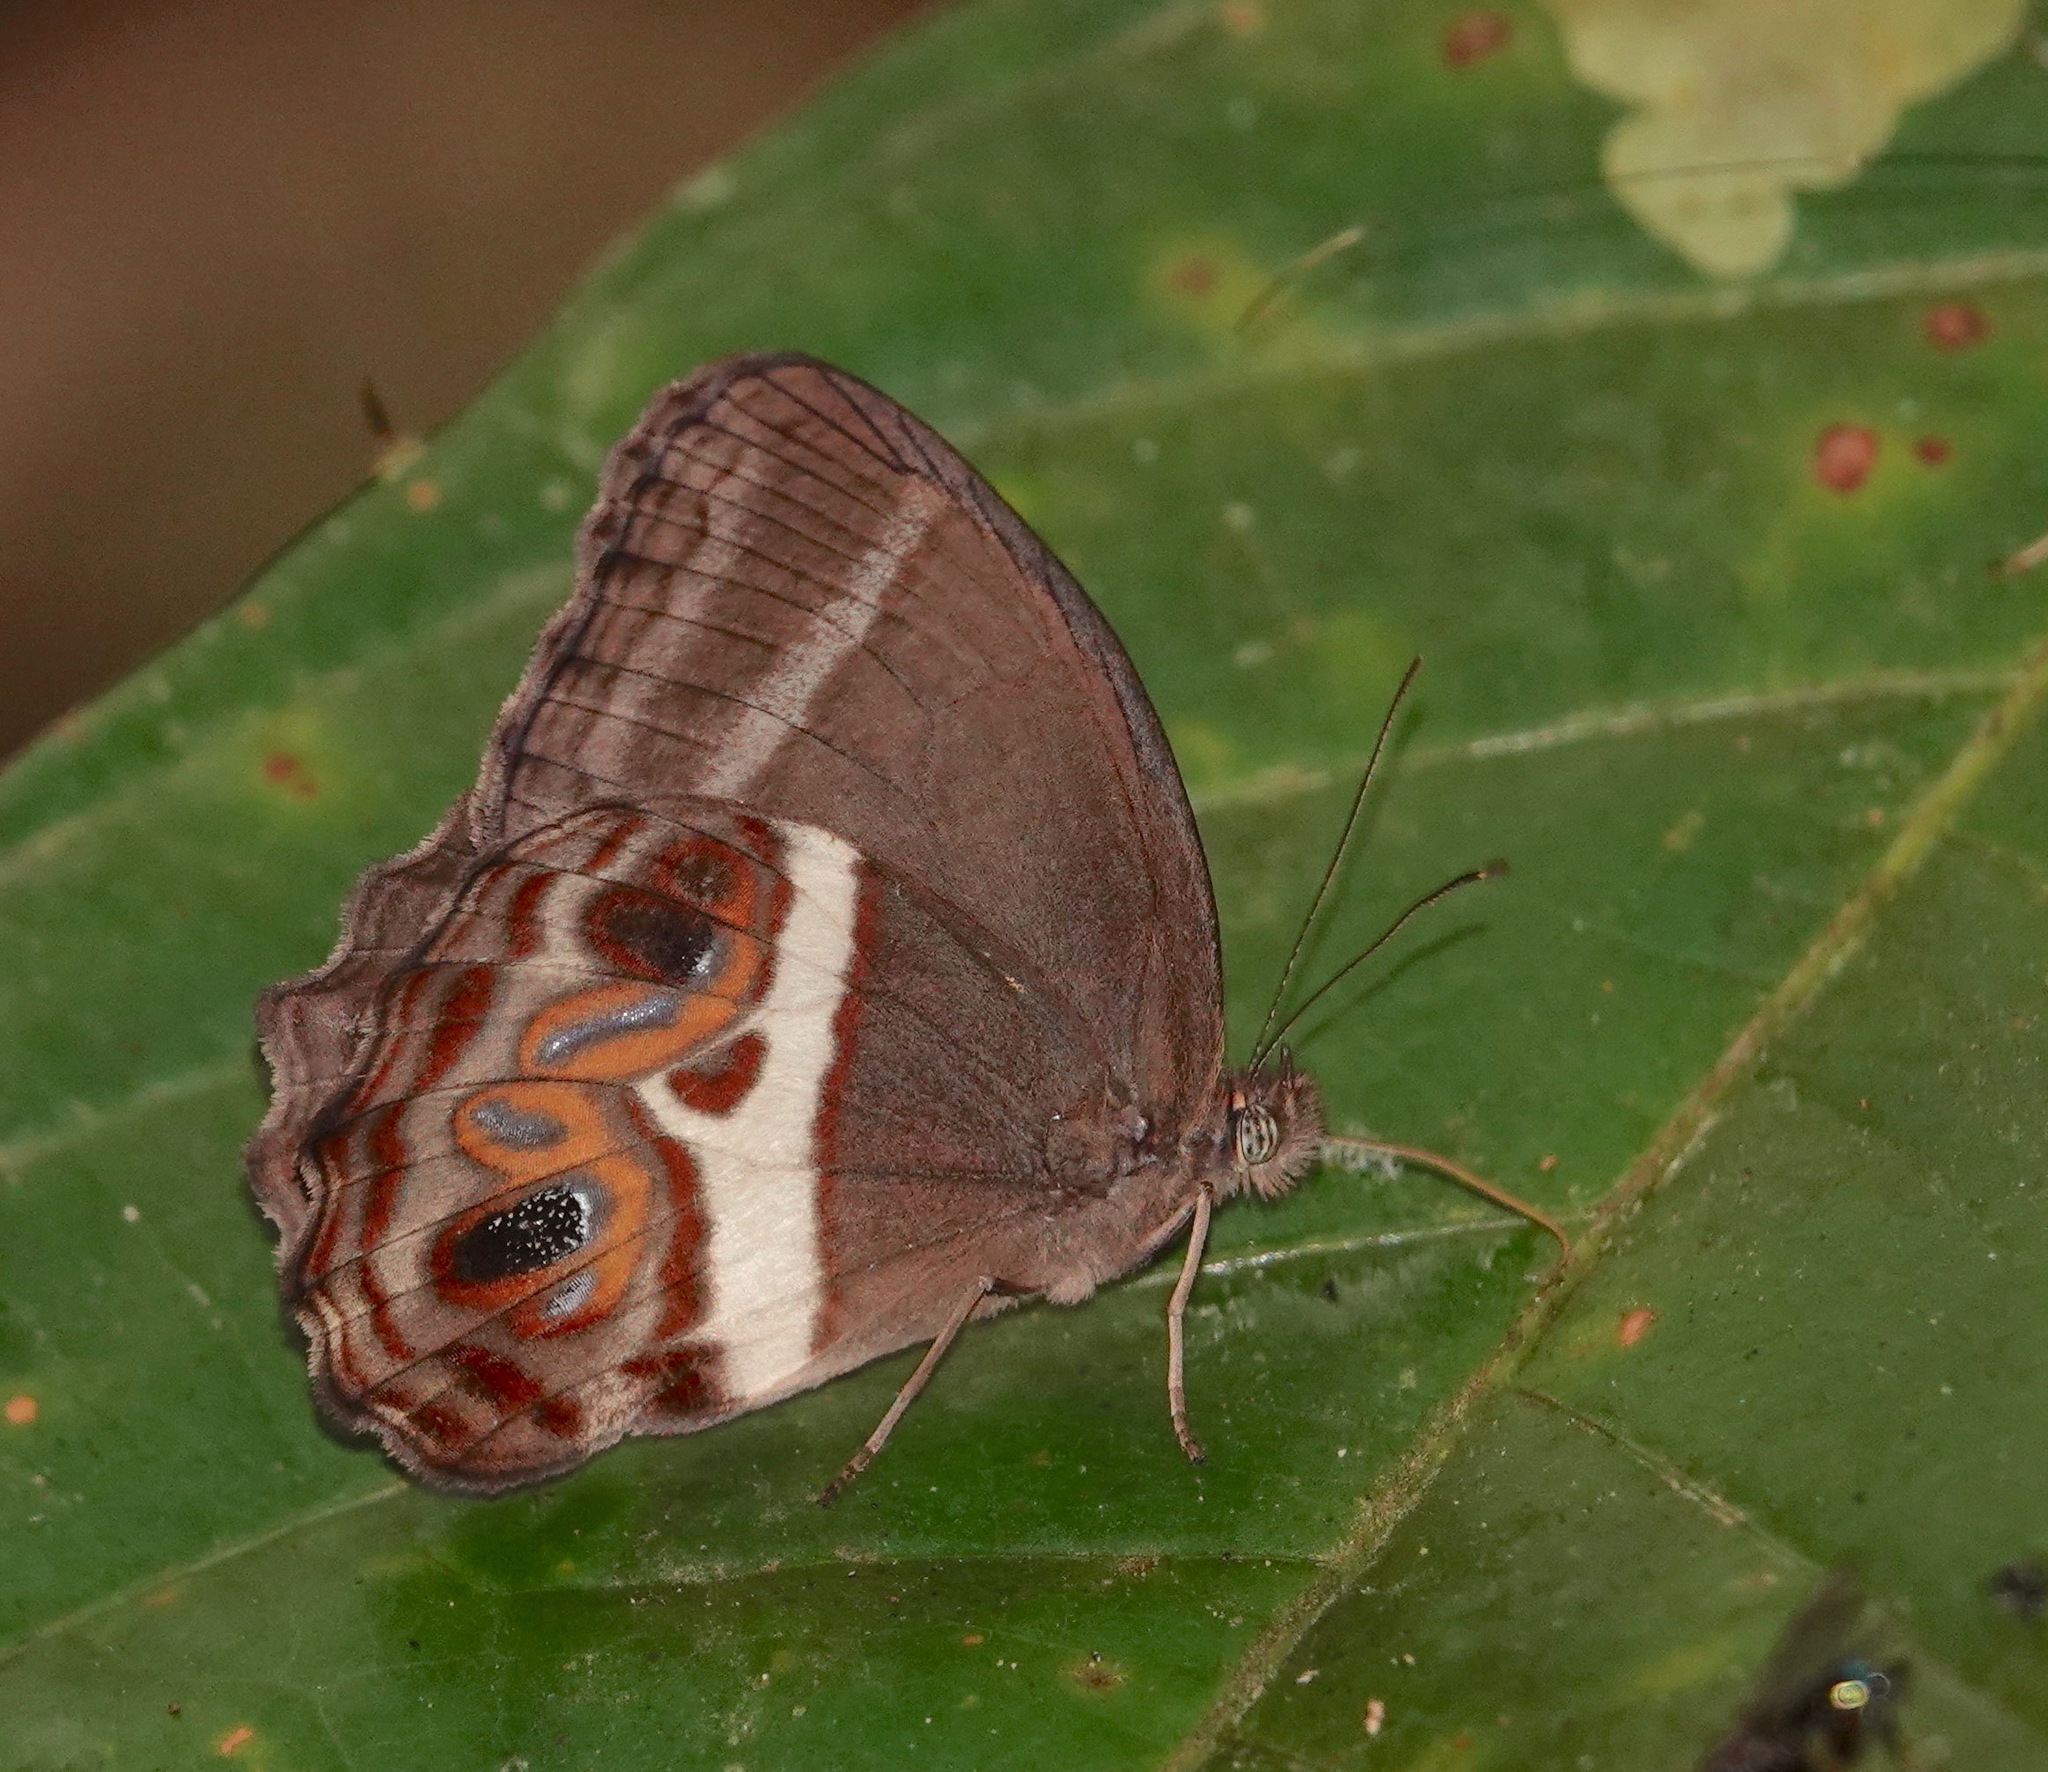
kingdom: Animalia
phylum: Arthropoda
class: Insecta
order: Lepidoptera
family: Nymphalidae
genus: Amphidecta
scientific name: Amphidecta
